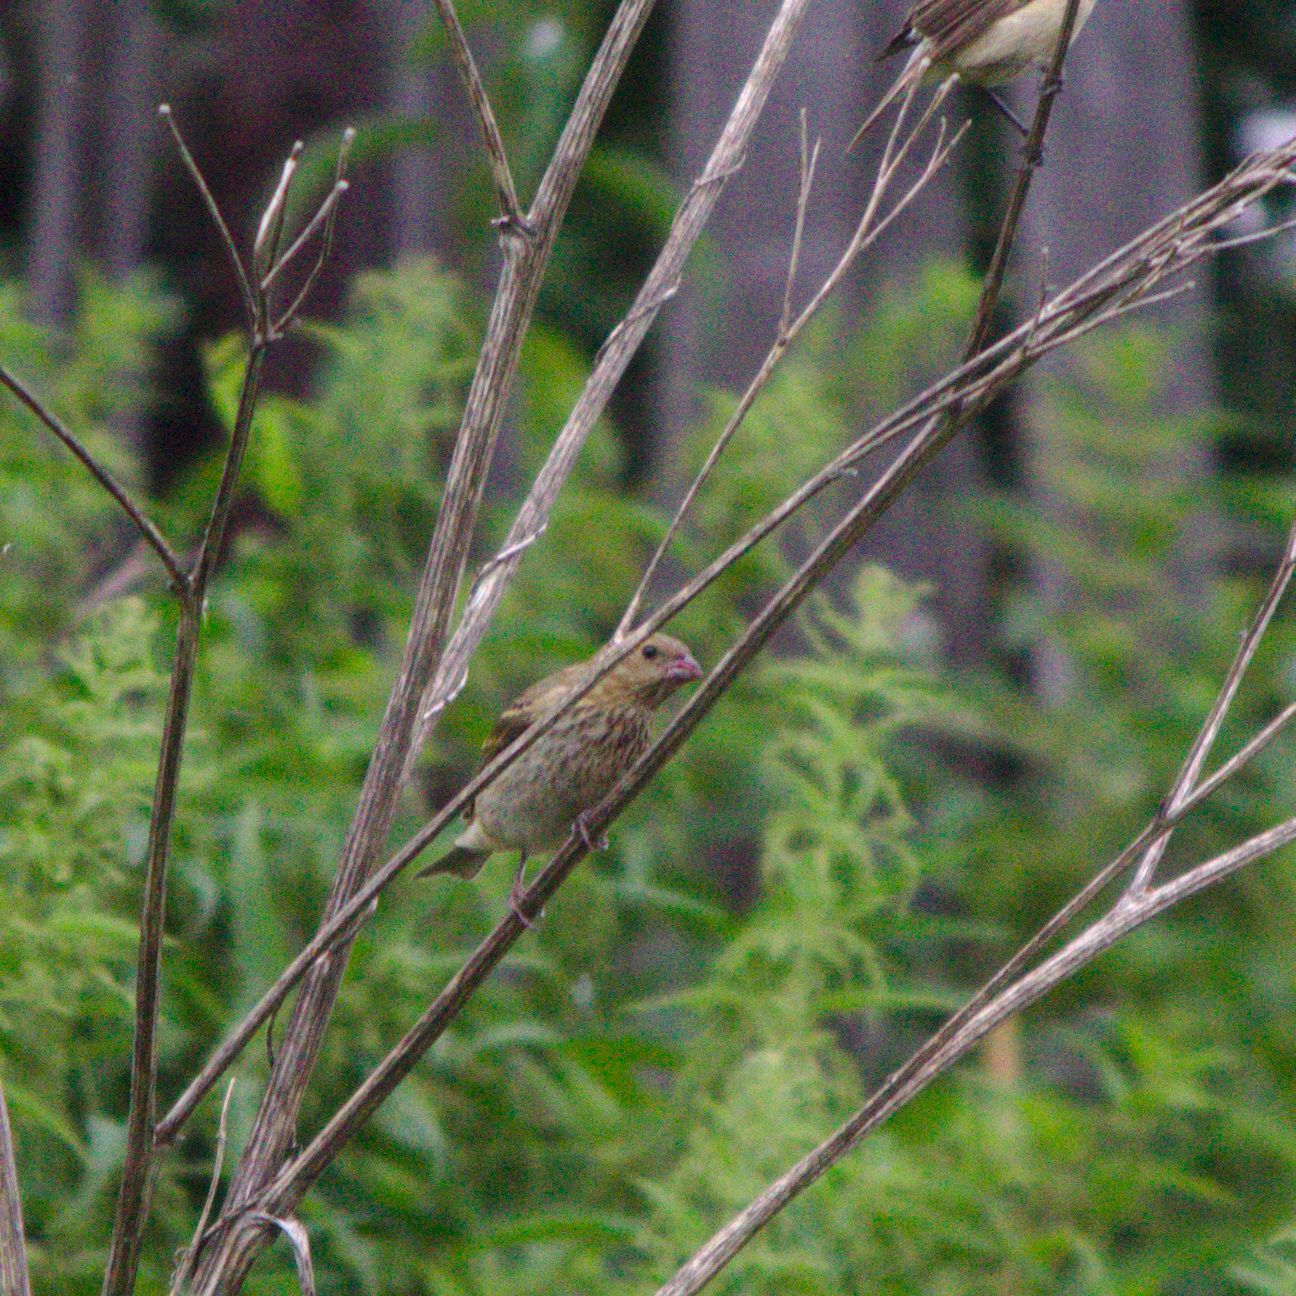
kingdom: Animalia
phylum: Chordata
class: Aves
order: Passeriformes
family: Fringillidae
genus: Carpodacus
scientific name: Carpodacus erythrinus
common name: Common rosefinch
